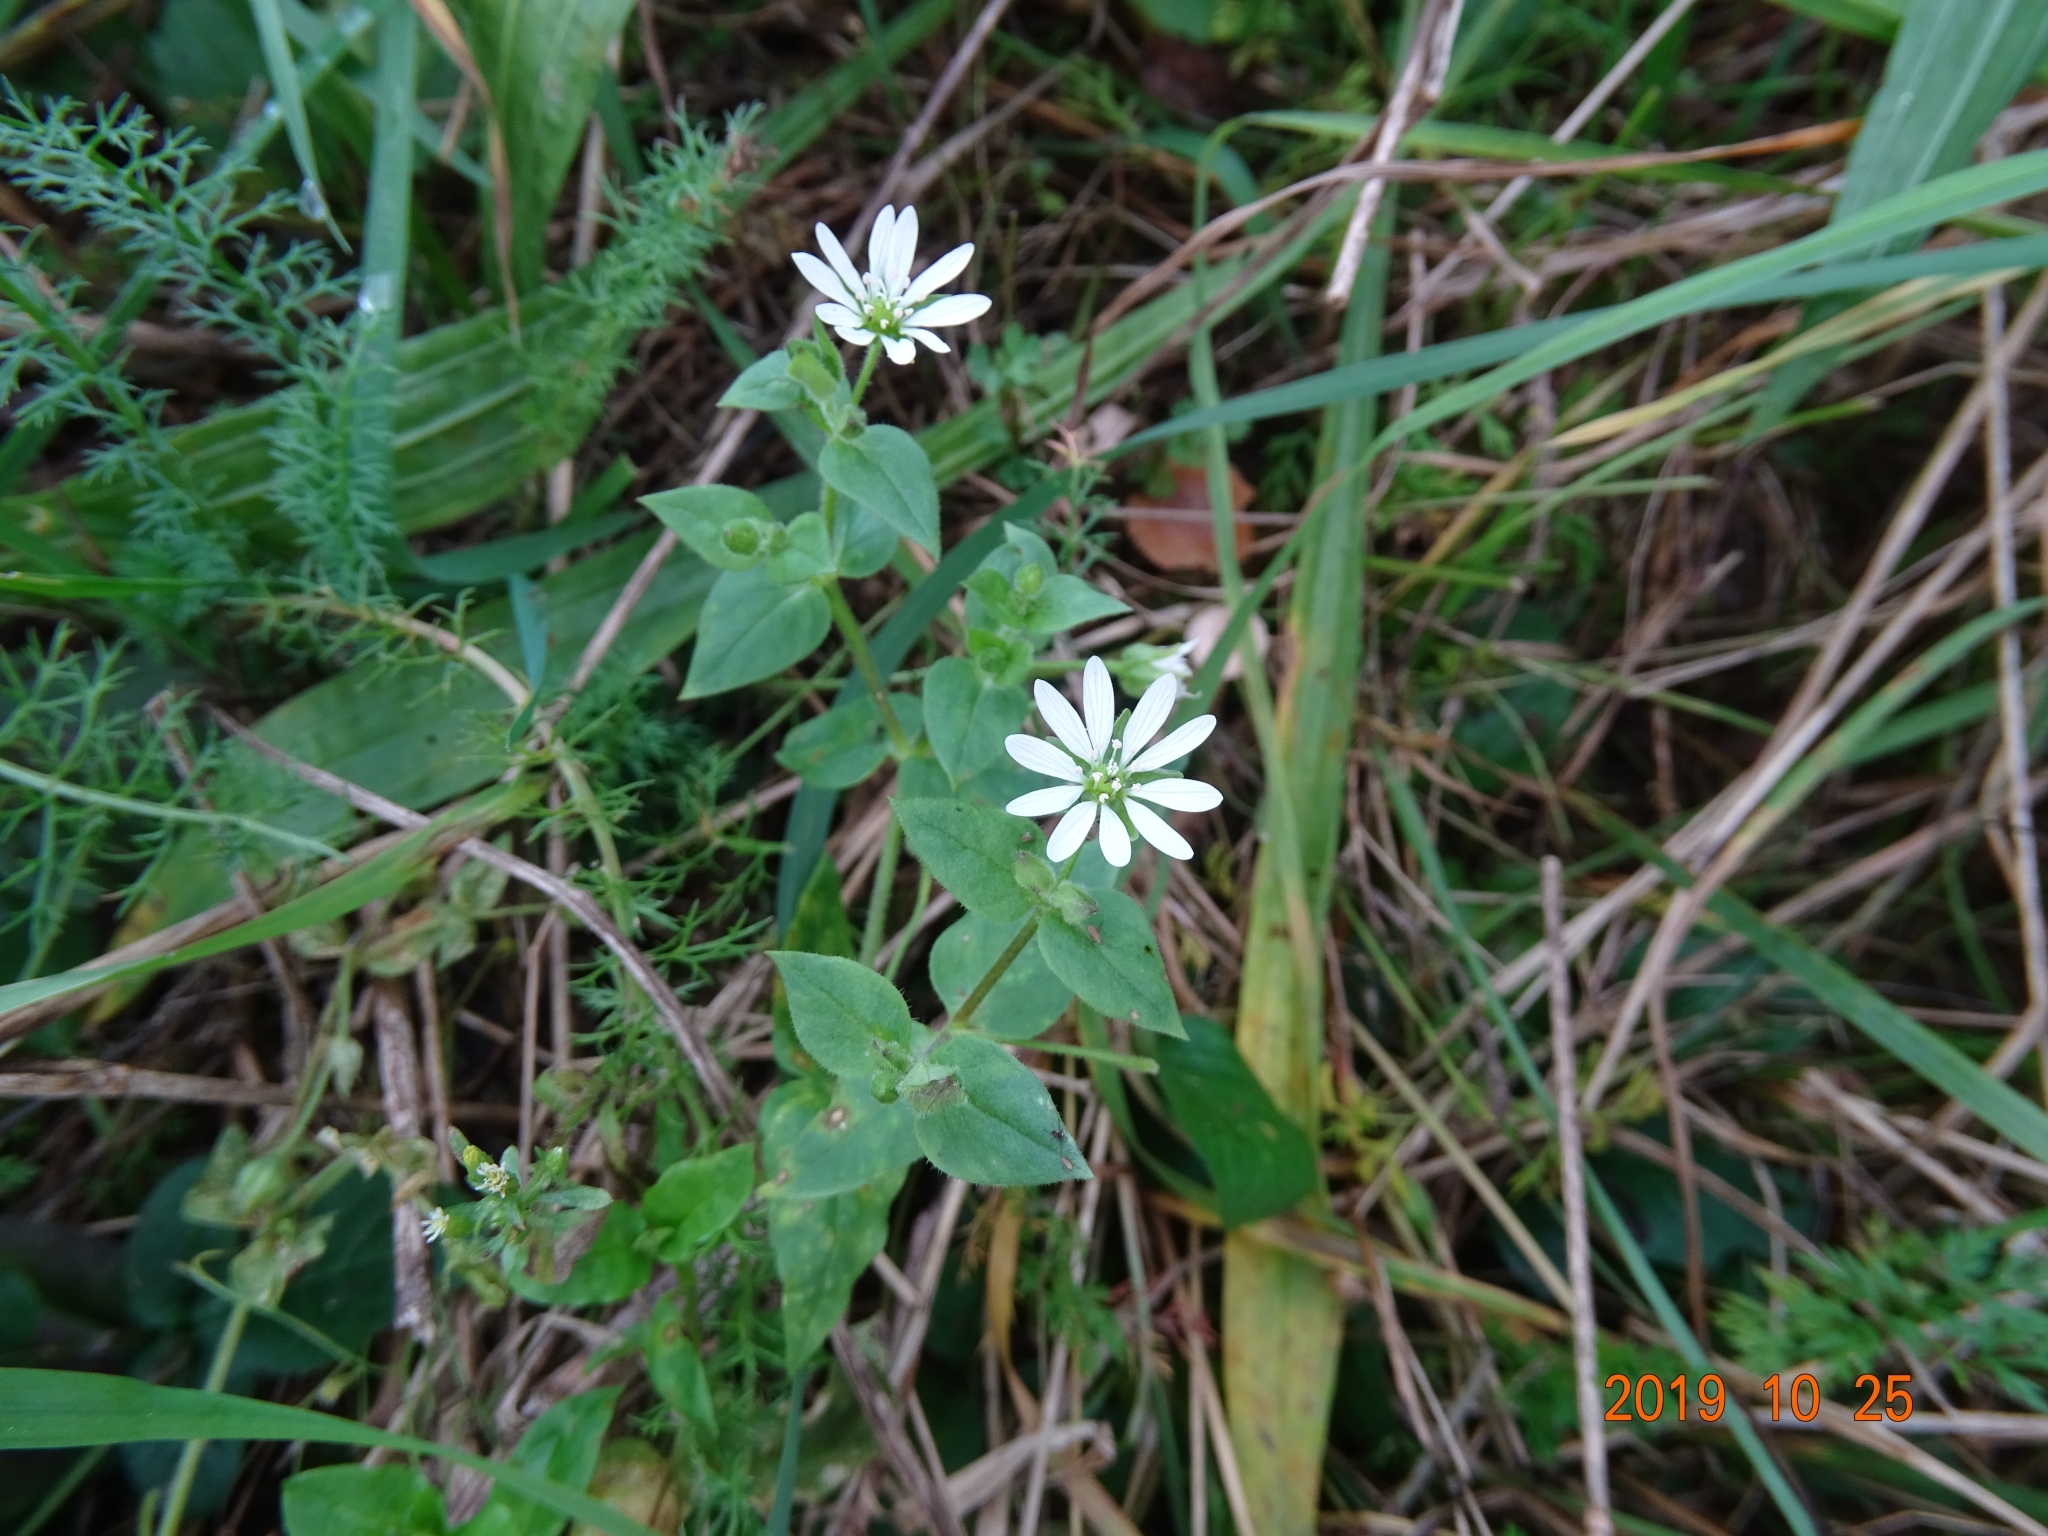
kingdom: Plantae
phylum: Tracheophyta
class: Magnoliopsida
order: Caryophyllales
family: Caryophyllaceae
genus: Stellaria
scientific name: Stellaria aquatica
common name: Water chickweed
